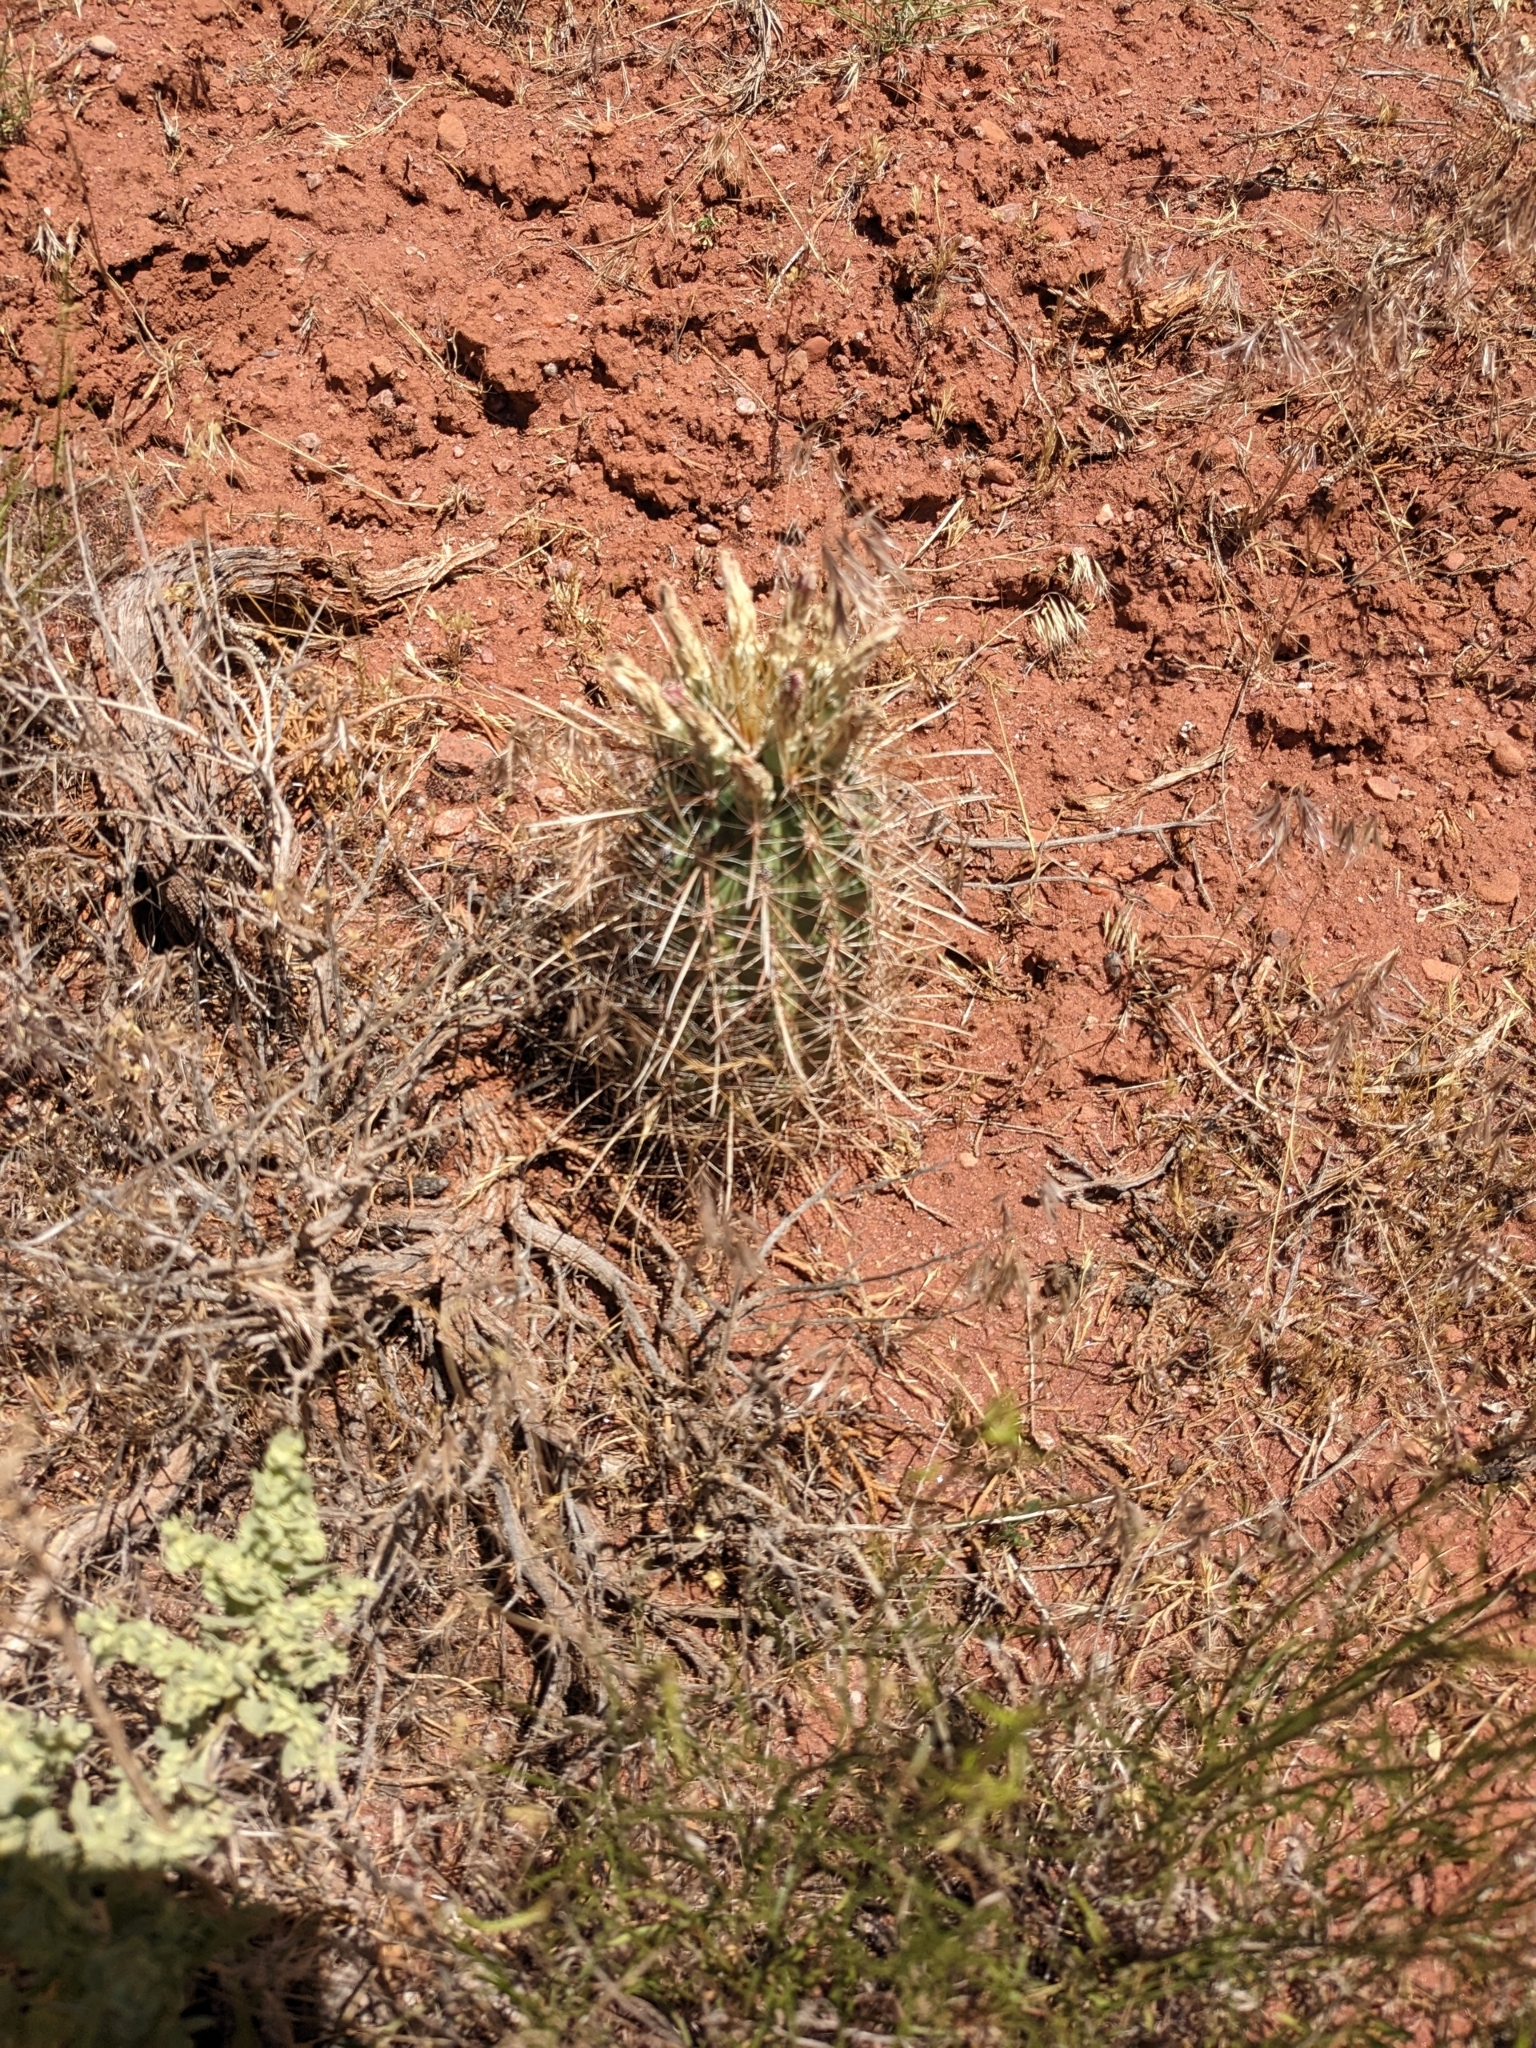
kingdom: Plantae
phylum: Tracheophyta
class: Magnoliopsida
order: Caryophyllales
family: Cactaceae
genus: Sclerocactus
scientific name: Sclerocactus parviflorus
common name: Small-flower fishhook cactus
